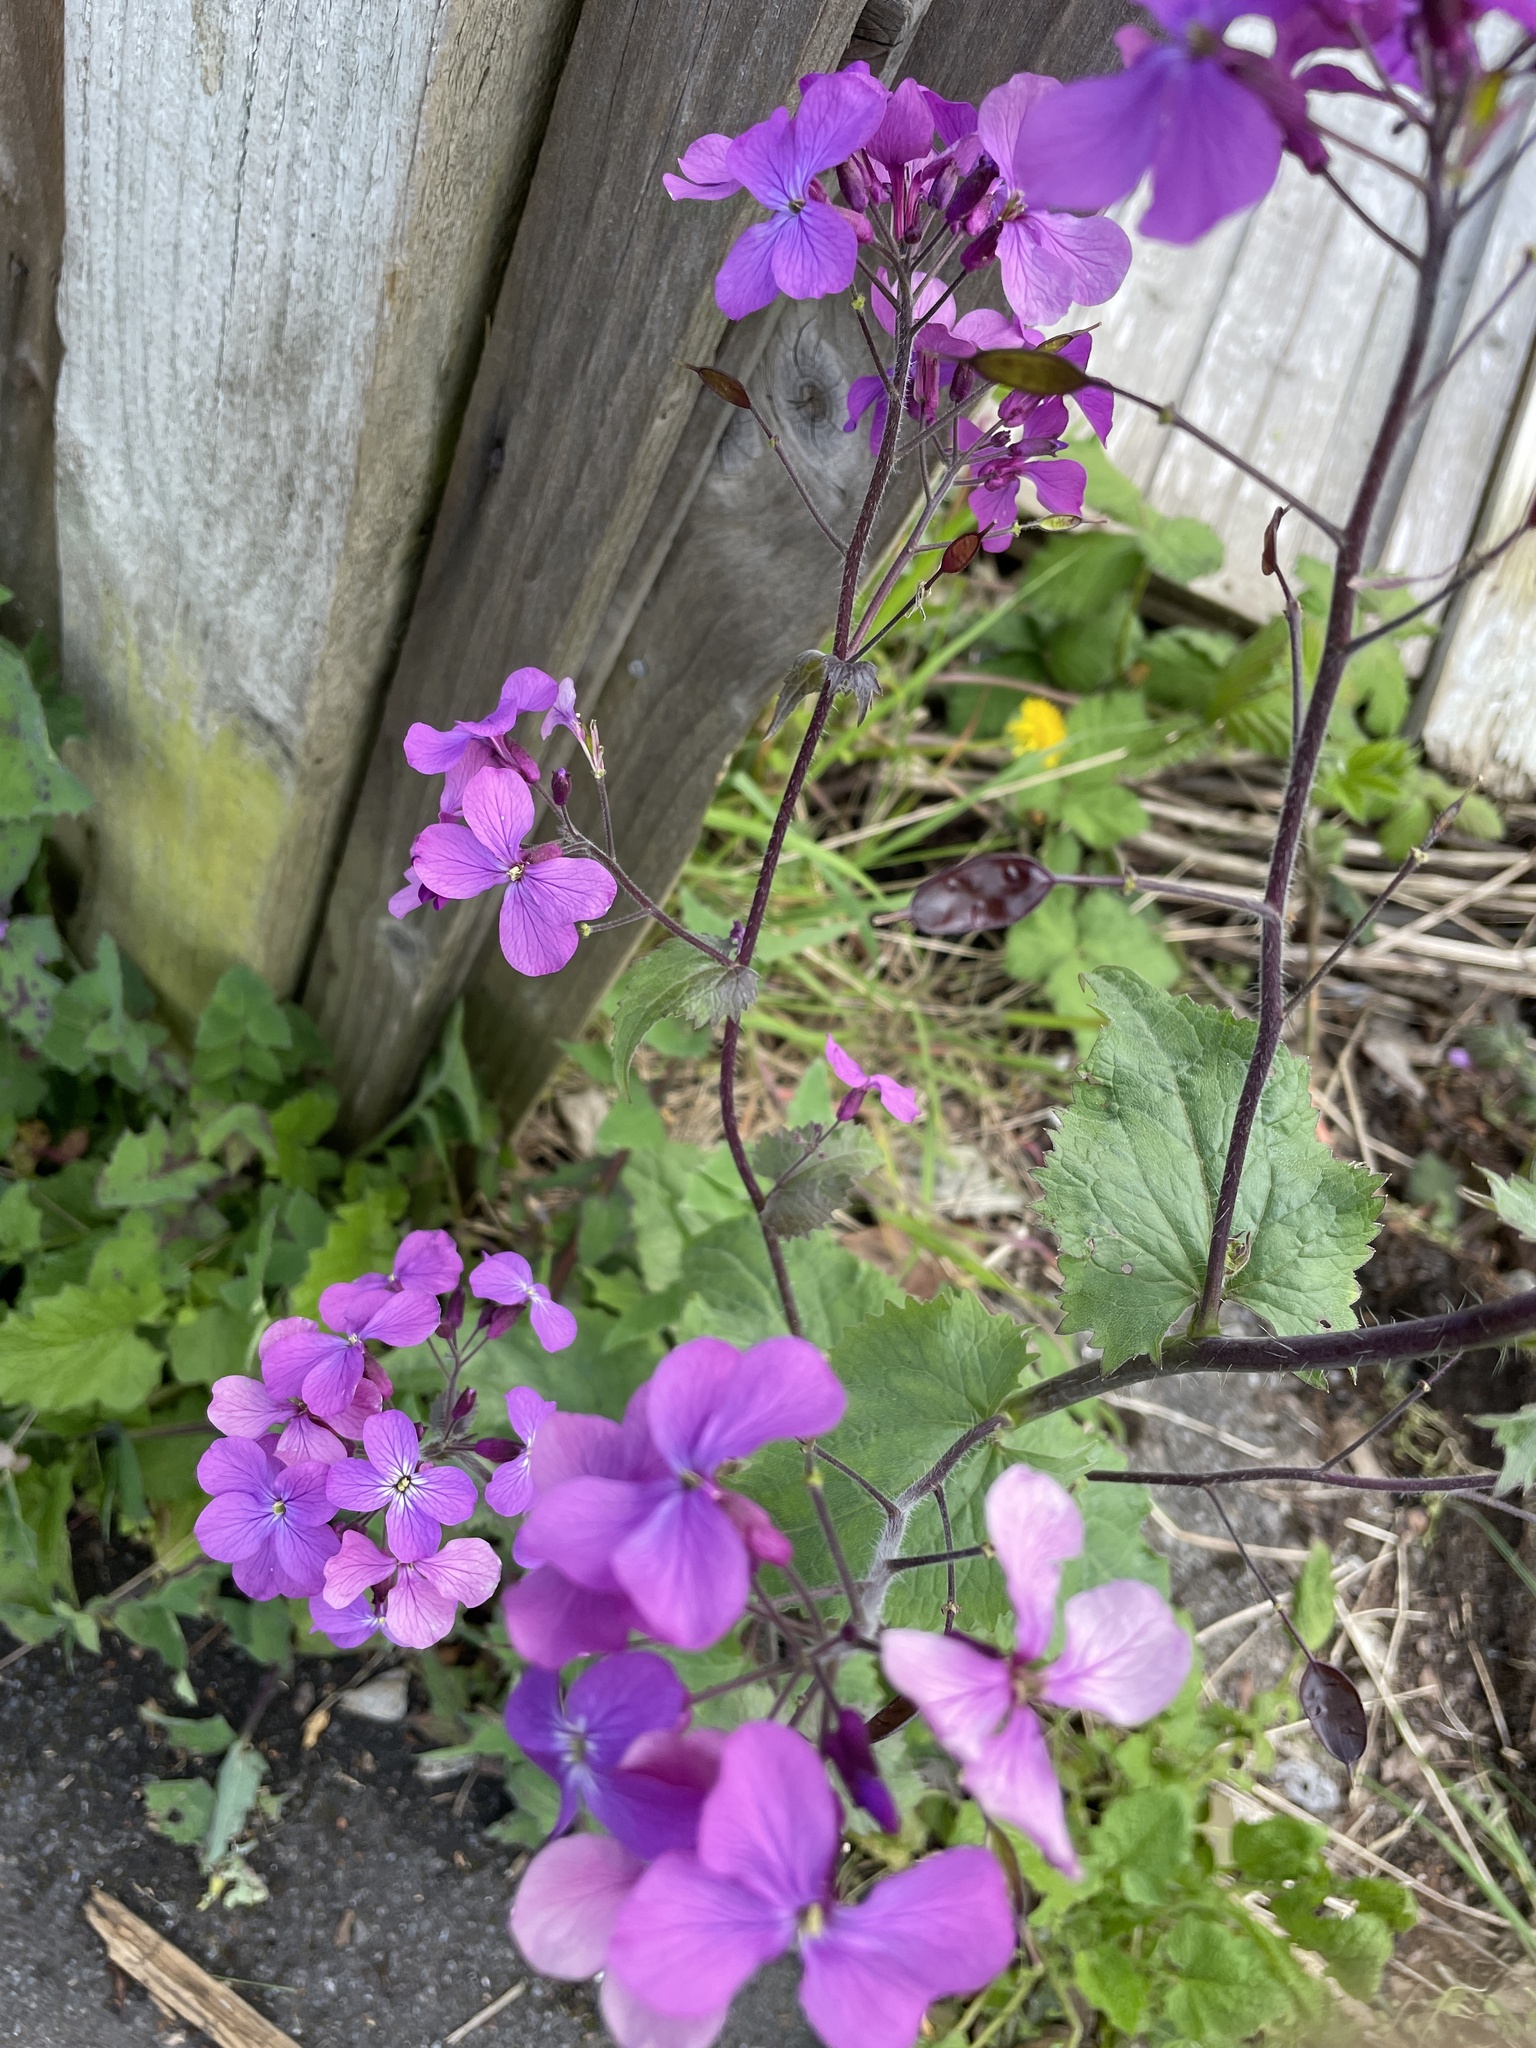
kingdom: Plantae
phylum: Tracheophyta
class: Magnoliopsida
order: Brassicales
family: Brassicaceae
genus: Lunaria
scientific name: Lunaria annua
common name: Honesty
